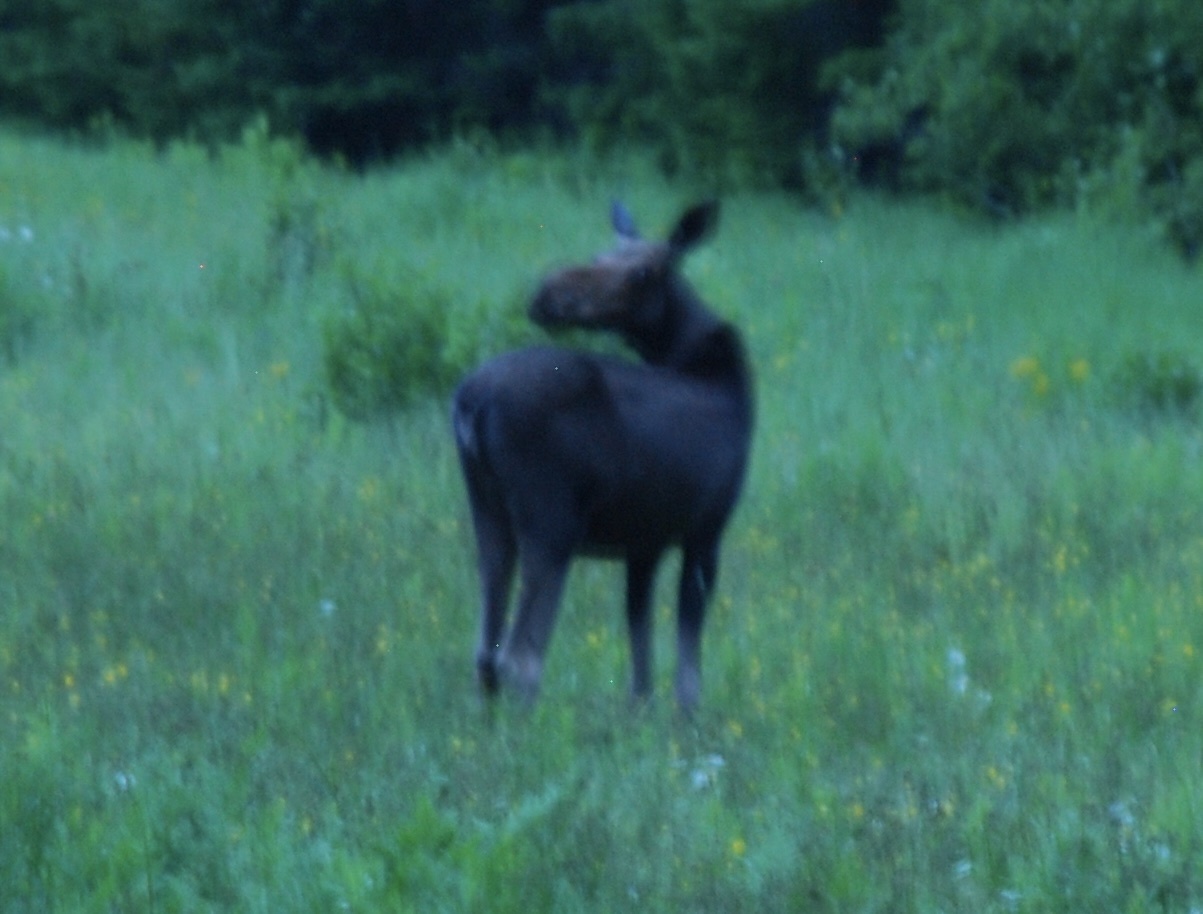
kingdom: Animalia
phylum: Chordata
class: Mammalia
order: Artiodactyla
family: Cervidae
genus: Alces
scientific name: Alces alces
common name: Moose
